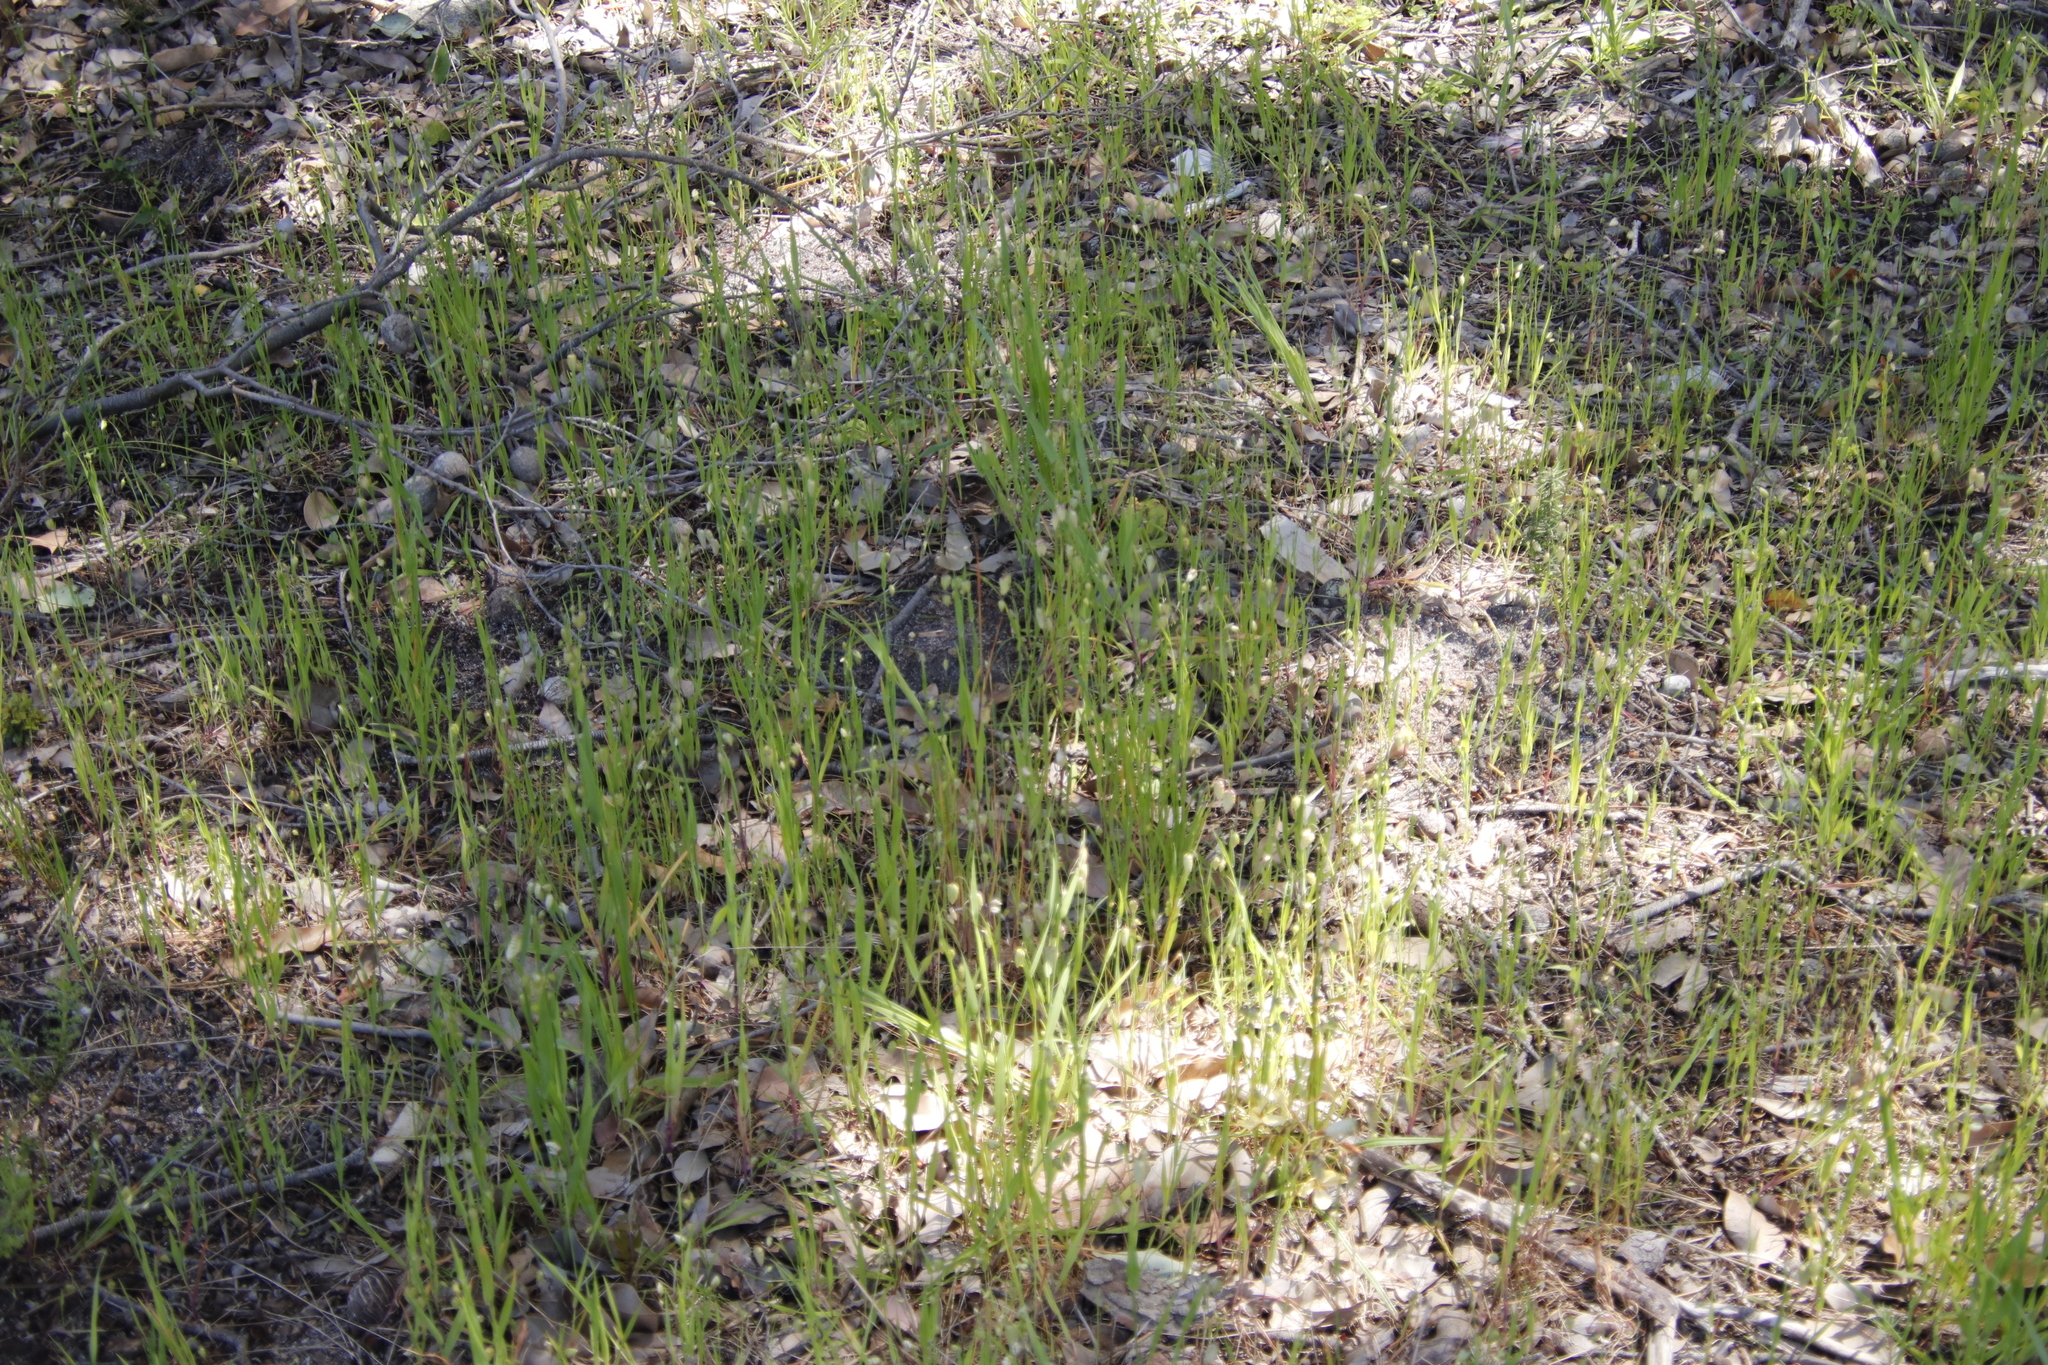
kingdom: Plantae
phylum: Tracheophyta
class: Liliopsida
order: Poales
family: Poaceae
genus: Briza
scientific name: Briza maxima
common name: Big quakinggrass
